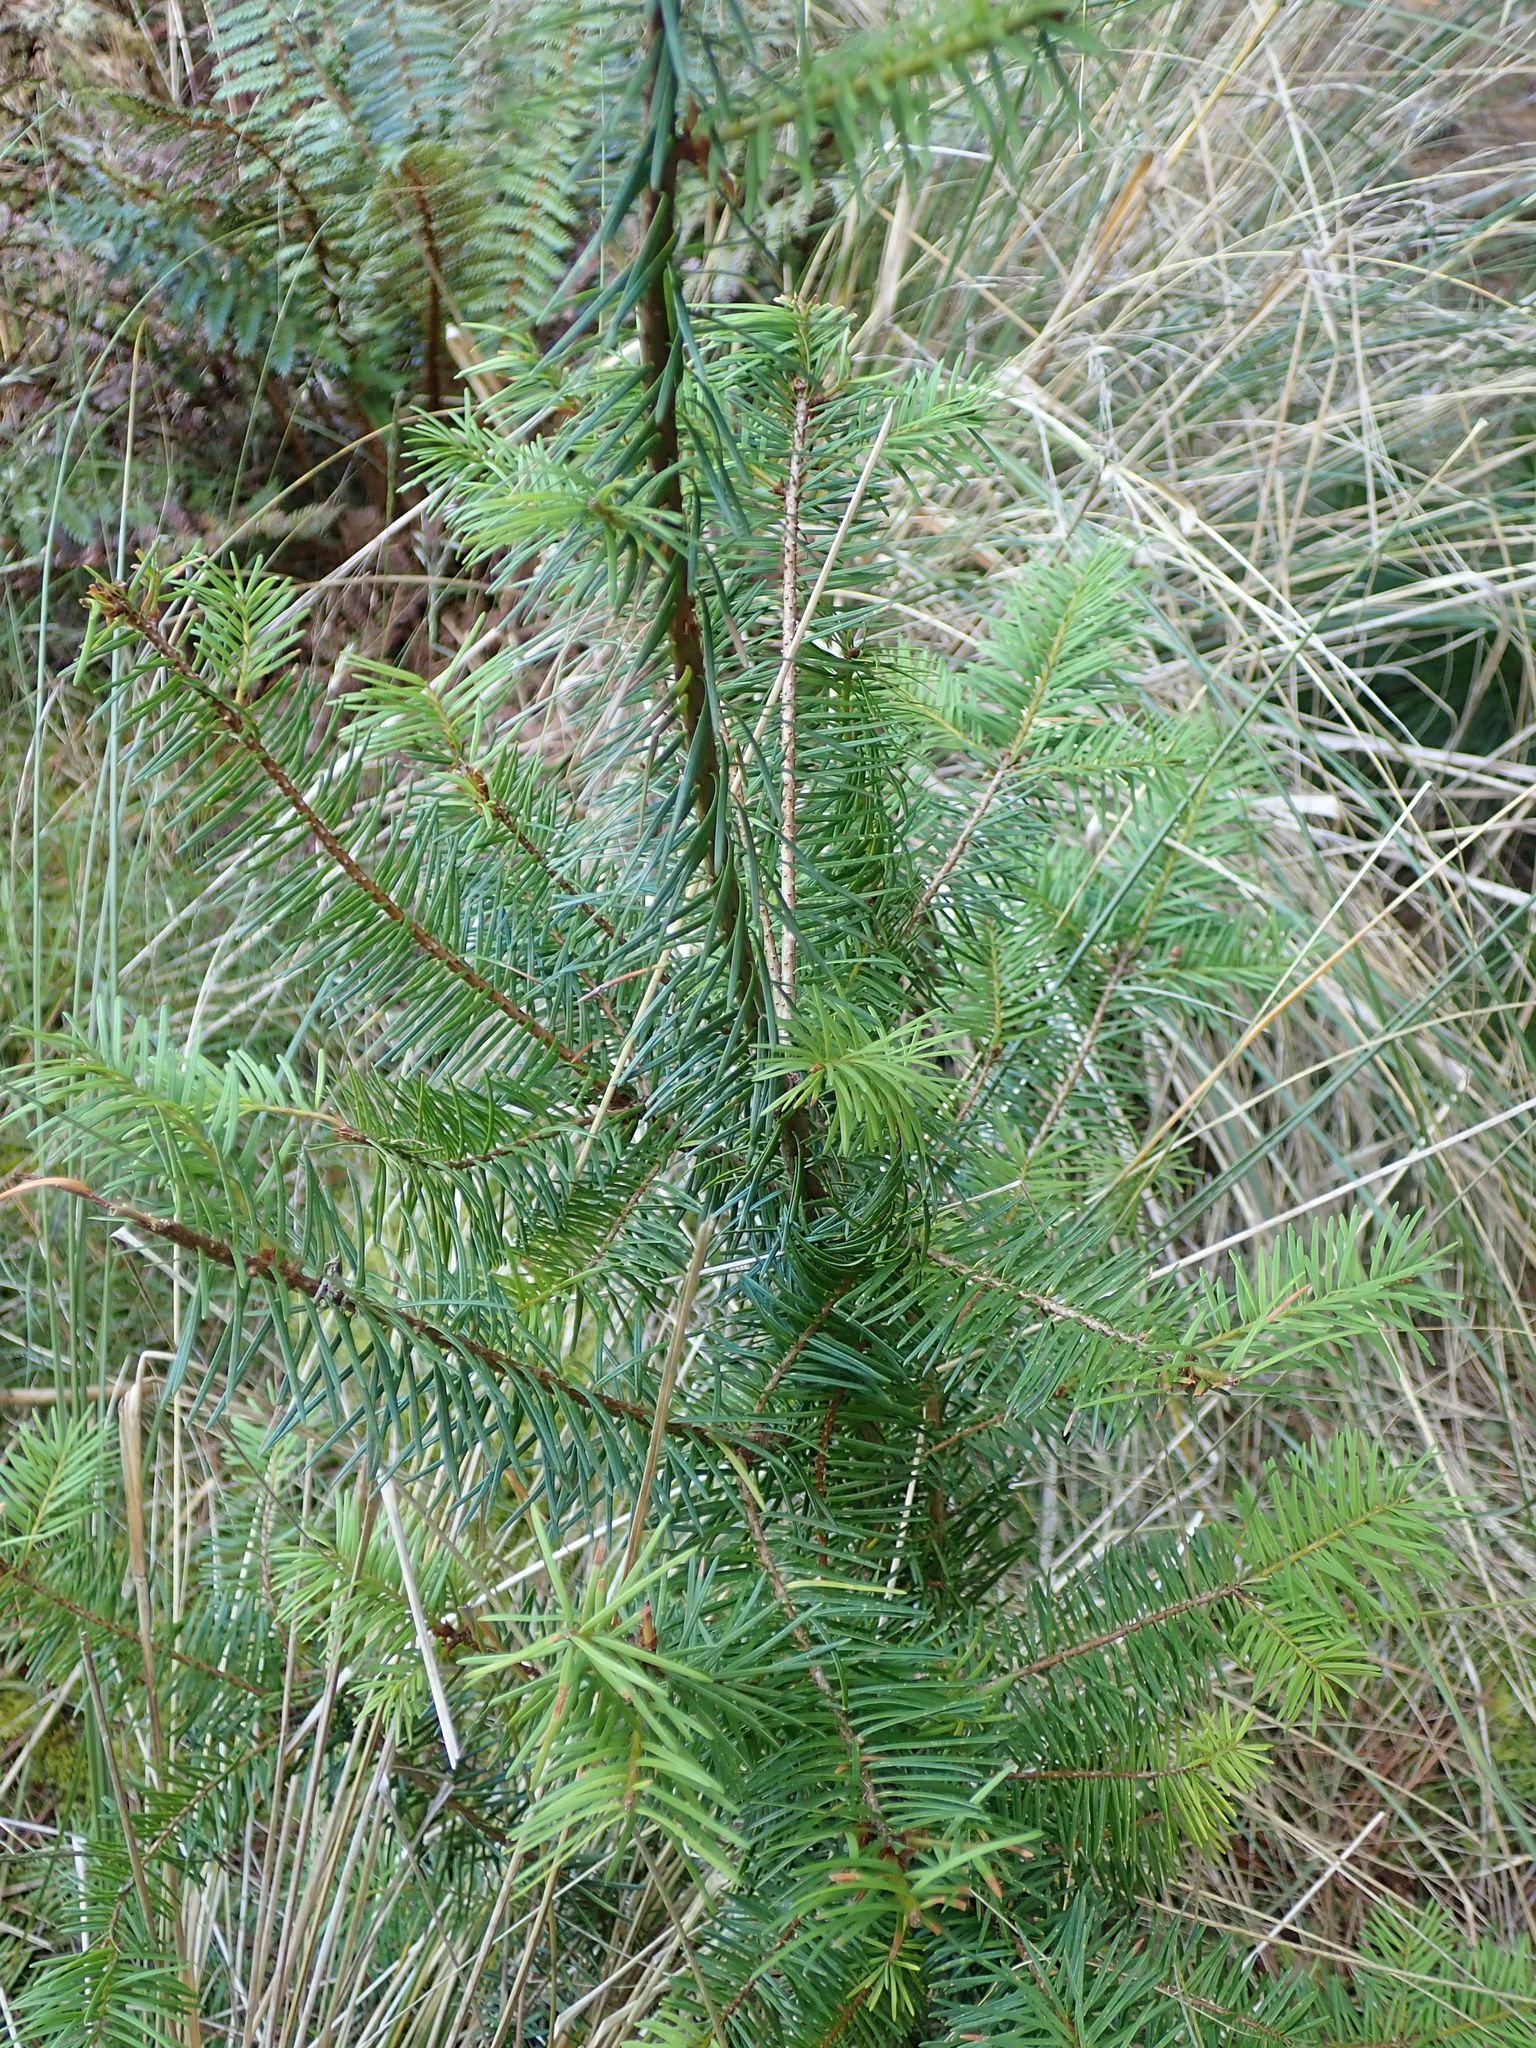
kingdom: Plantae
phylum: Tracheophyta
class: Pinopsida
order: Pinales
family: Pinaceae
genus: Pseudotsuga
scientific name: Pseudotsuga menziesii
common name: Douglas fir
